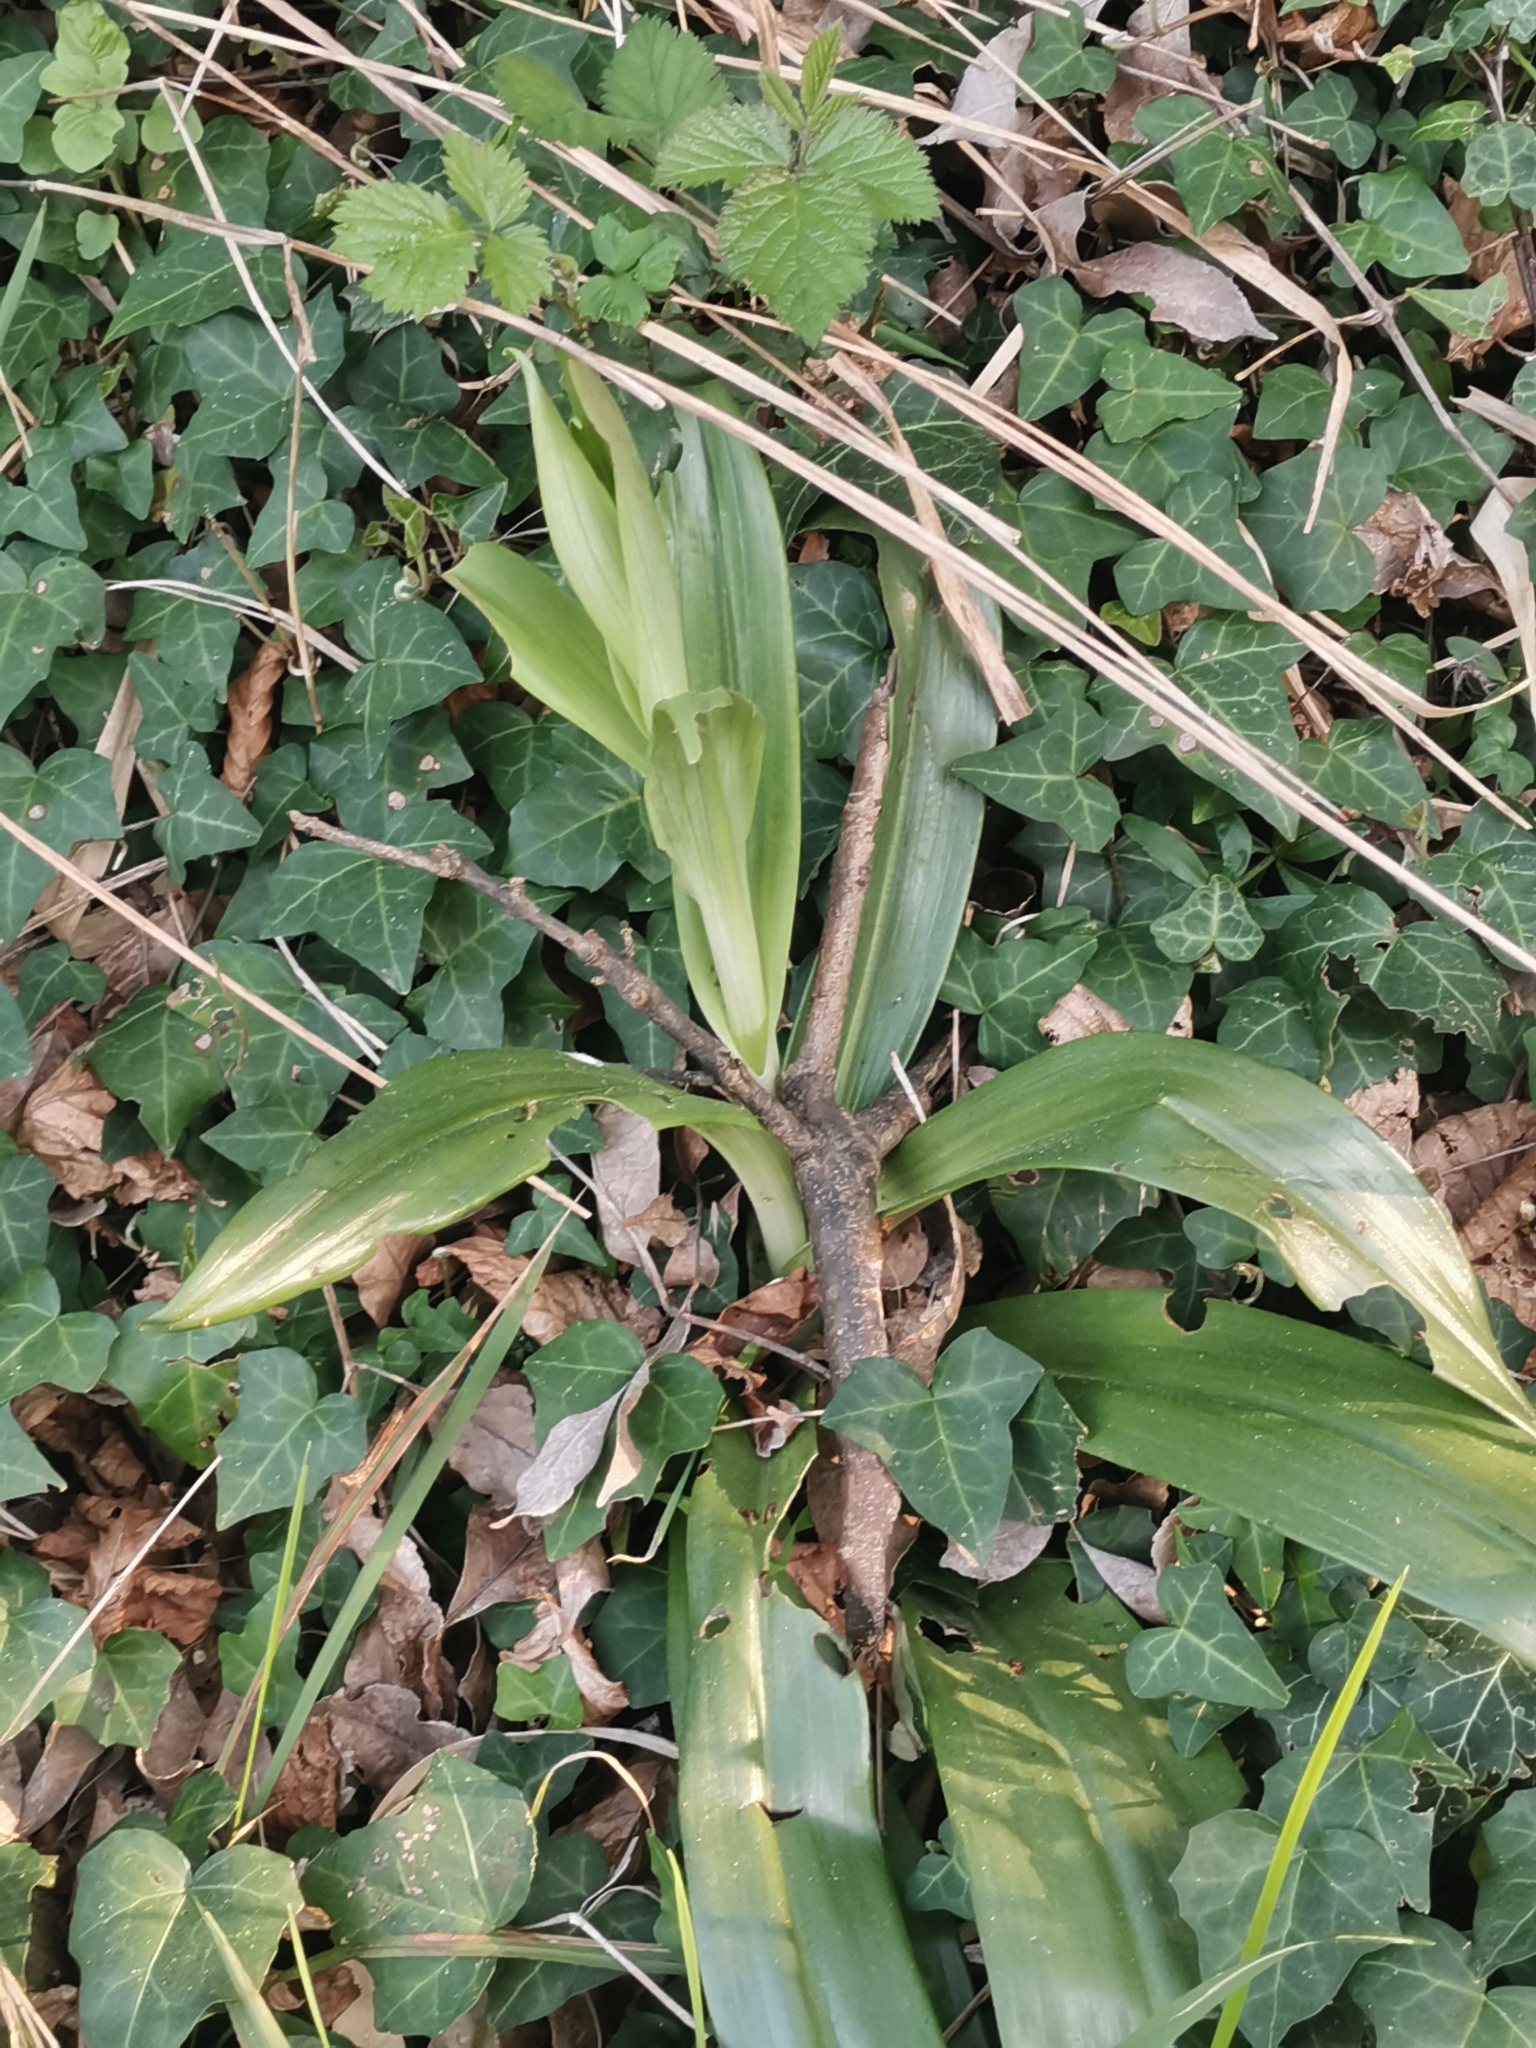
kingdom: Plantae
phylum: Tracheophyta
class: Liliopsida
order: Asparagales
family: Orchidaceae
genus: Himantoglossum
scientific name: Himantoglossum adriaticum
